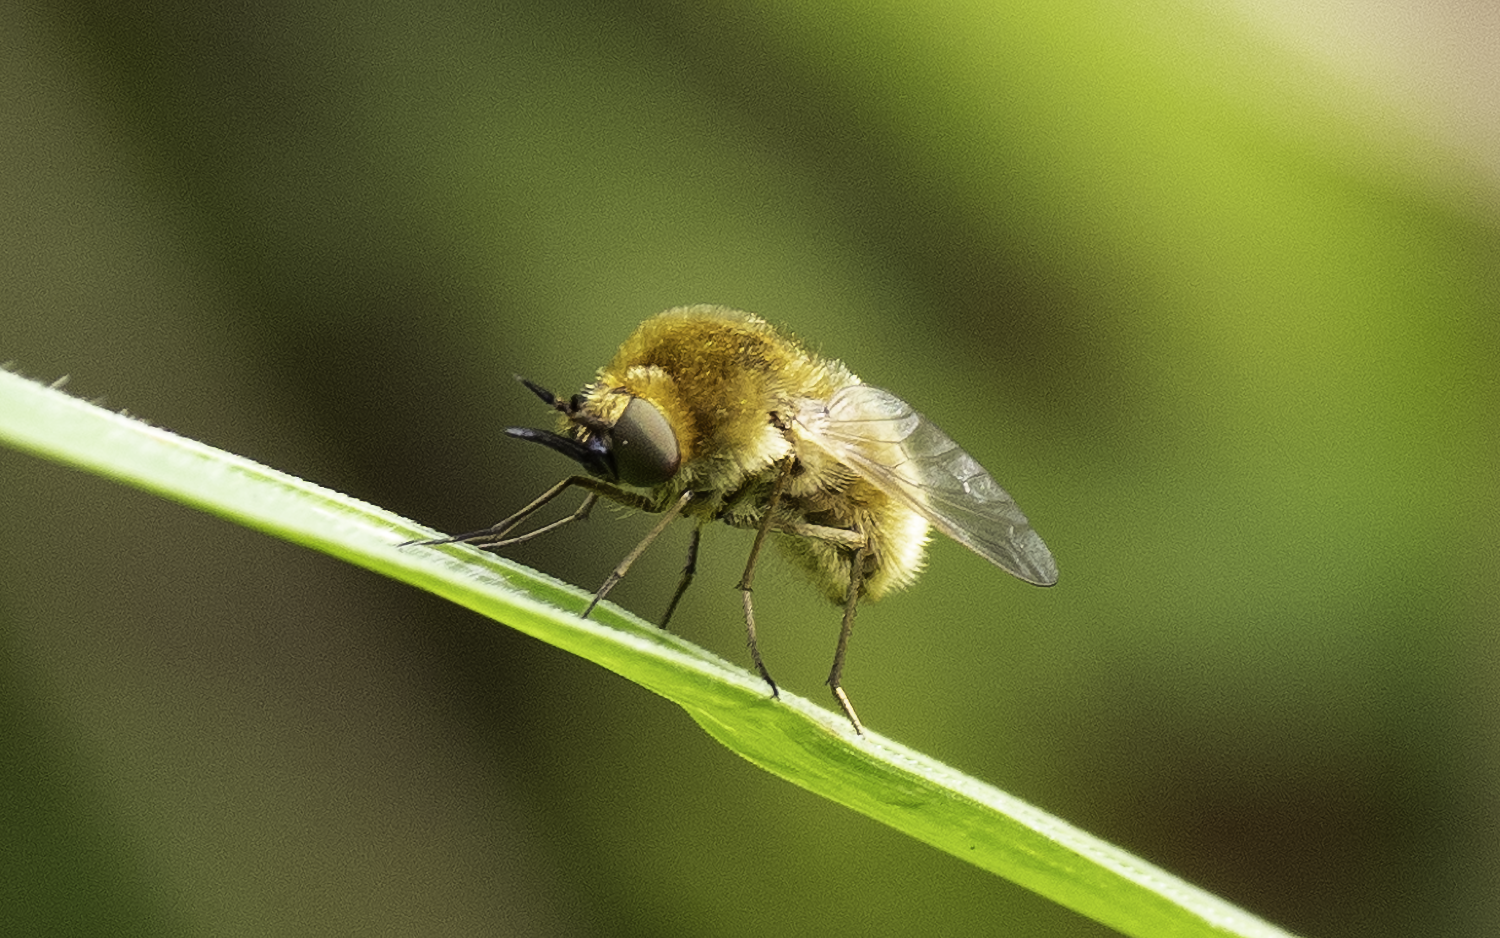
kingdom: Animalia
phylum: Arthropoda
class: Insecta
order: Diptera
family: Bombyliidae
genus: Sparnopolius
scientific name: Sparnopolius confusus
